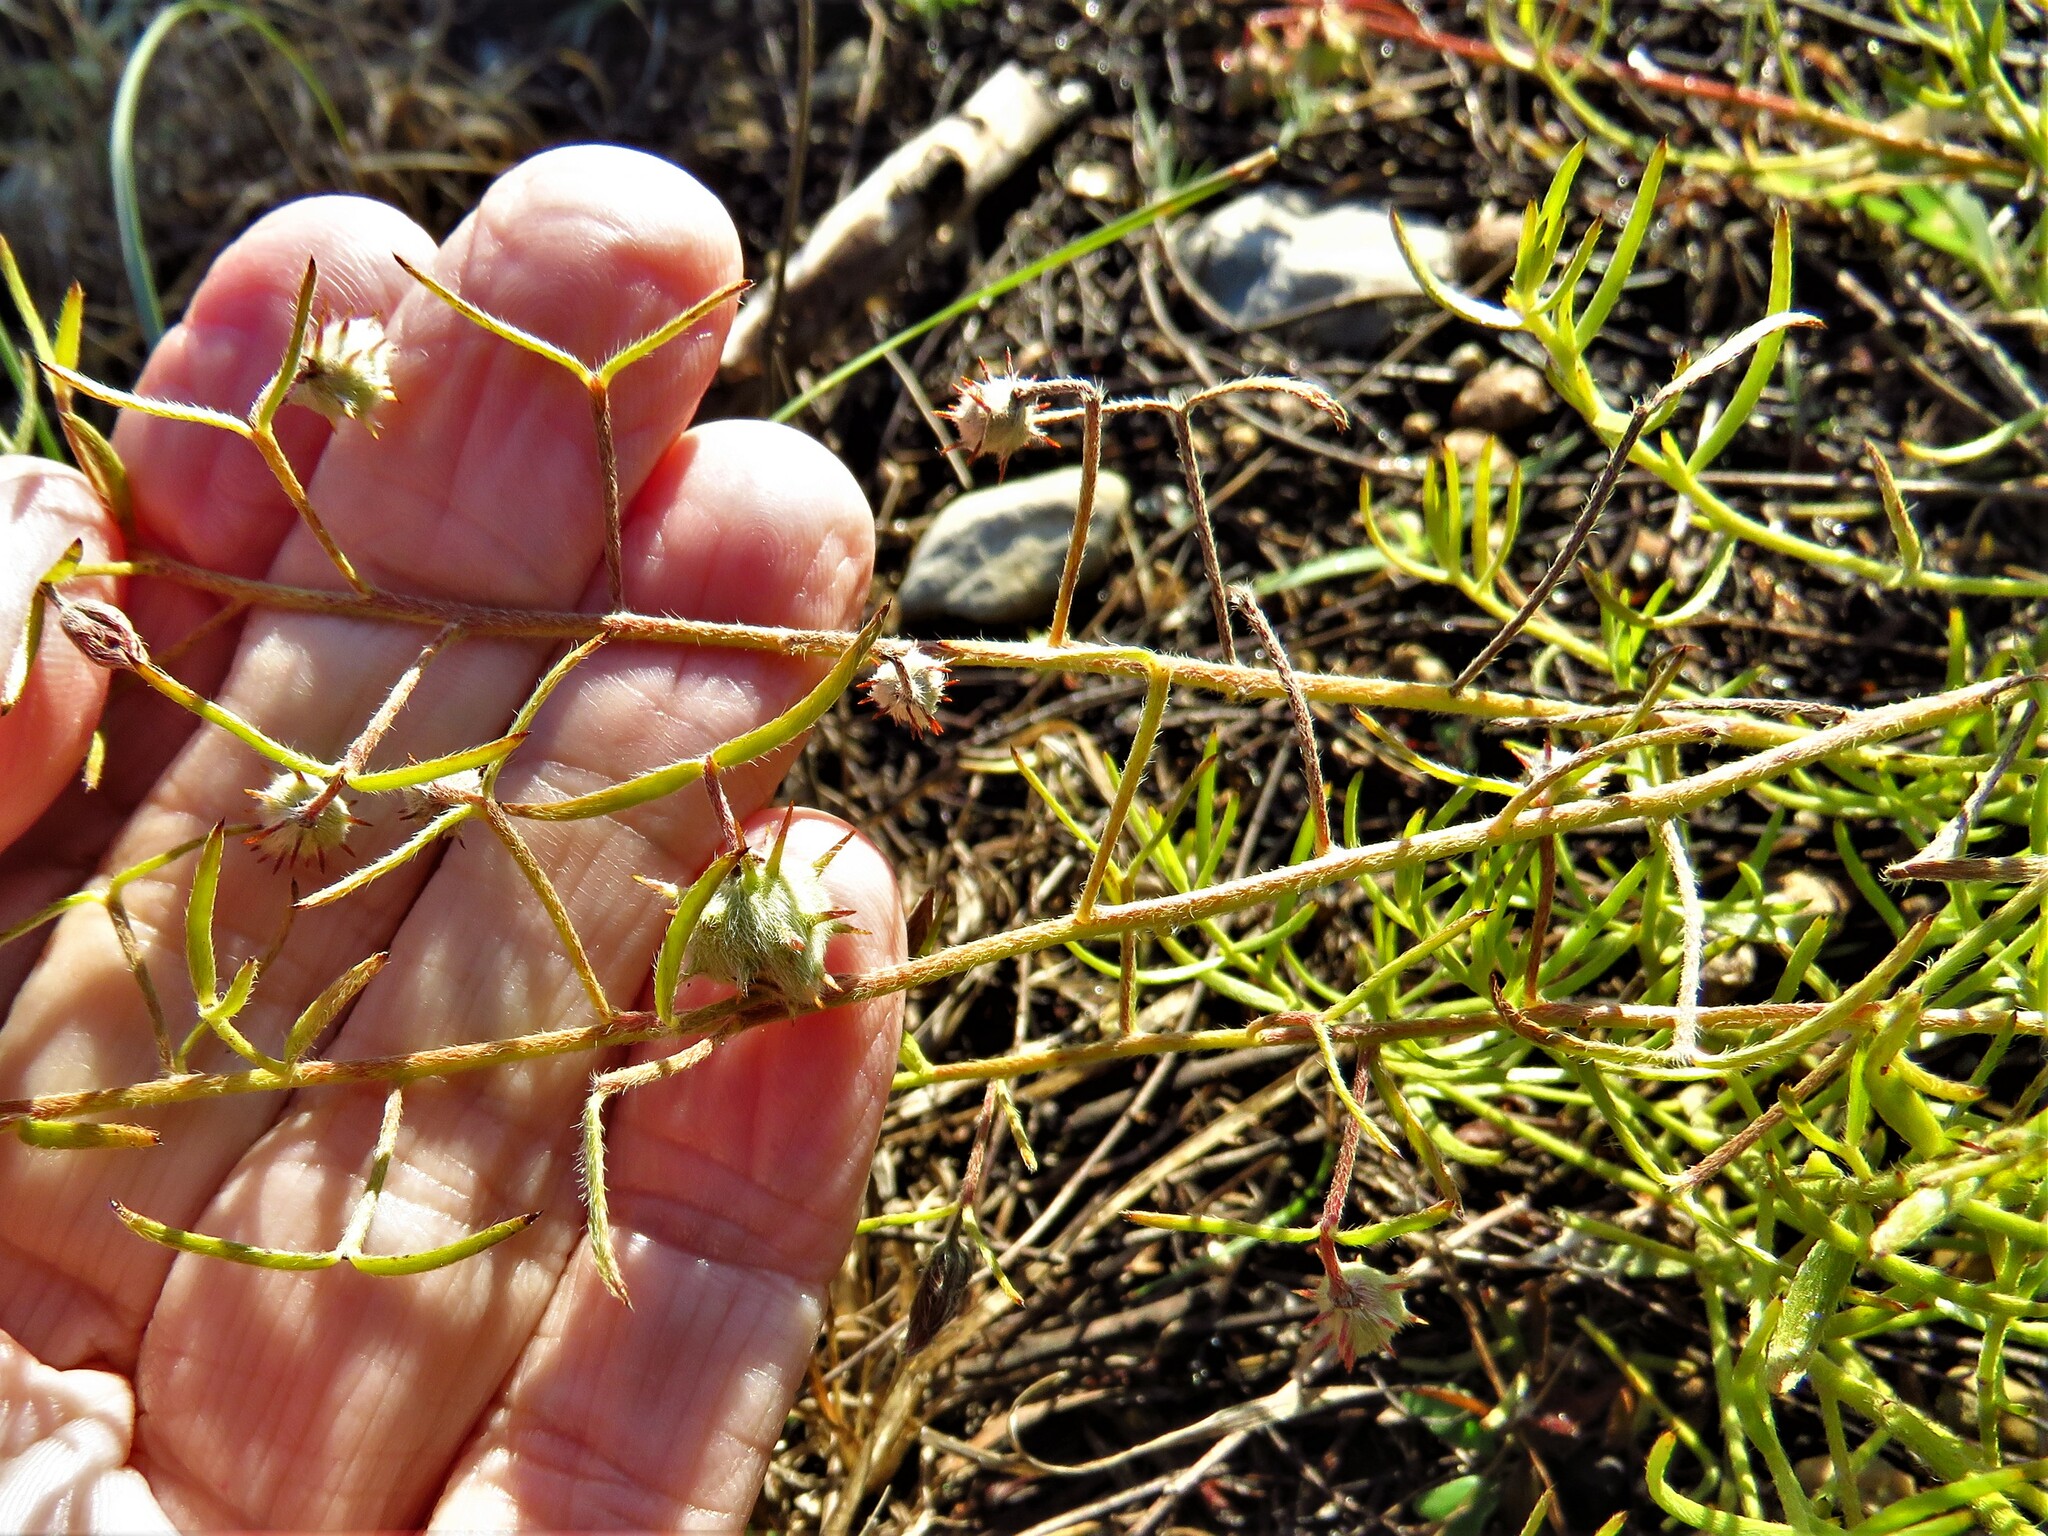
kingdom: Plantae
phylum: Tracheophyta
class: Magnoliopsida
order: Zygophyllales
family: Krameriaceae
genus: Krameria
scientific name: Krameria lanceolata
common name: Ratany
